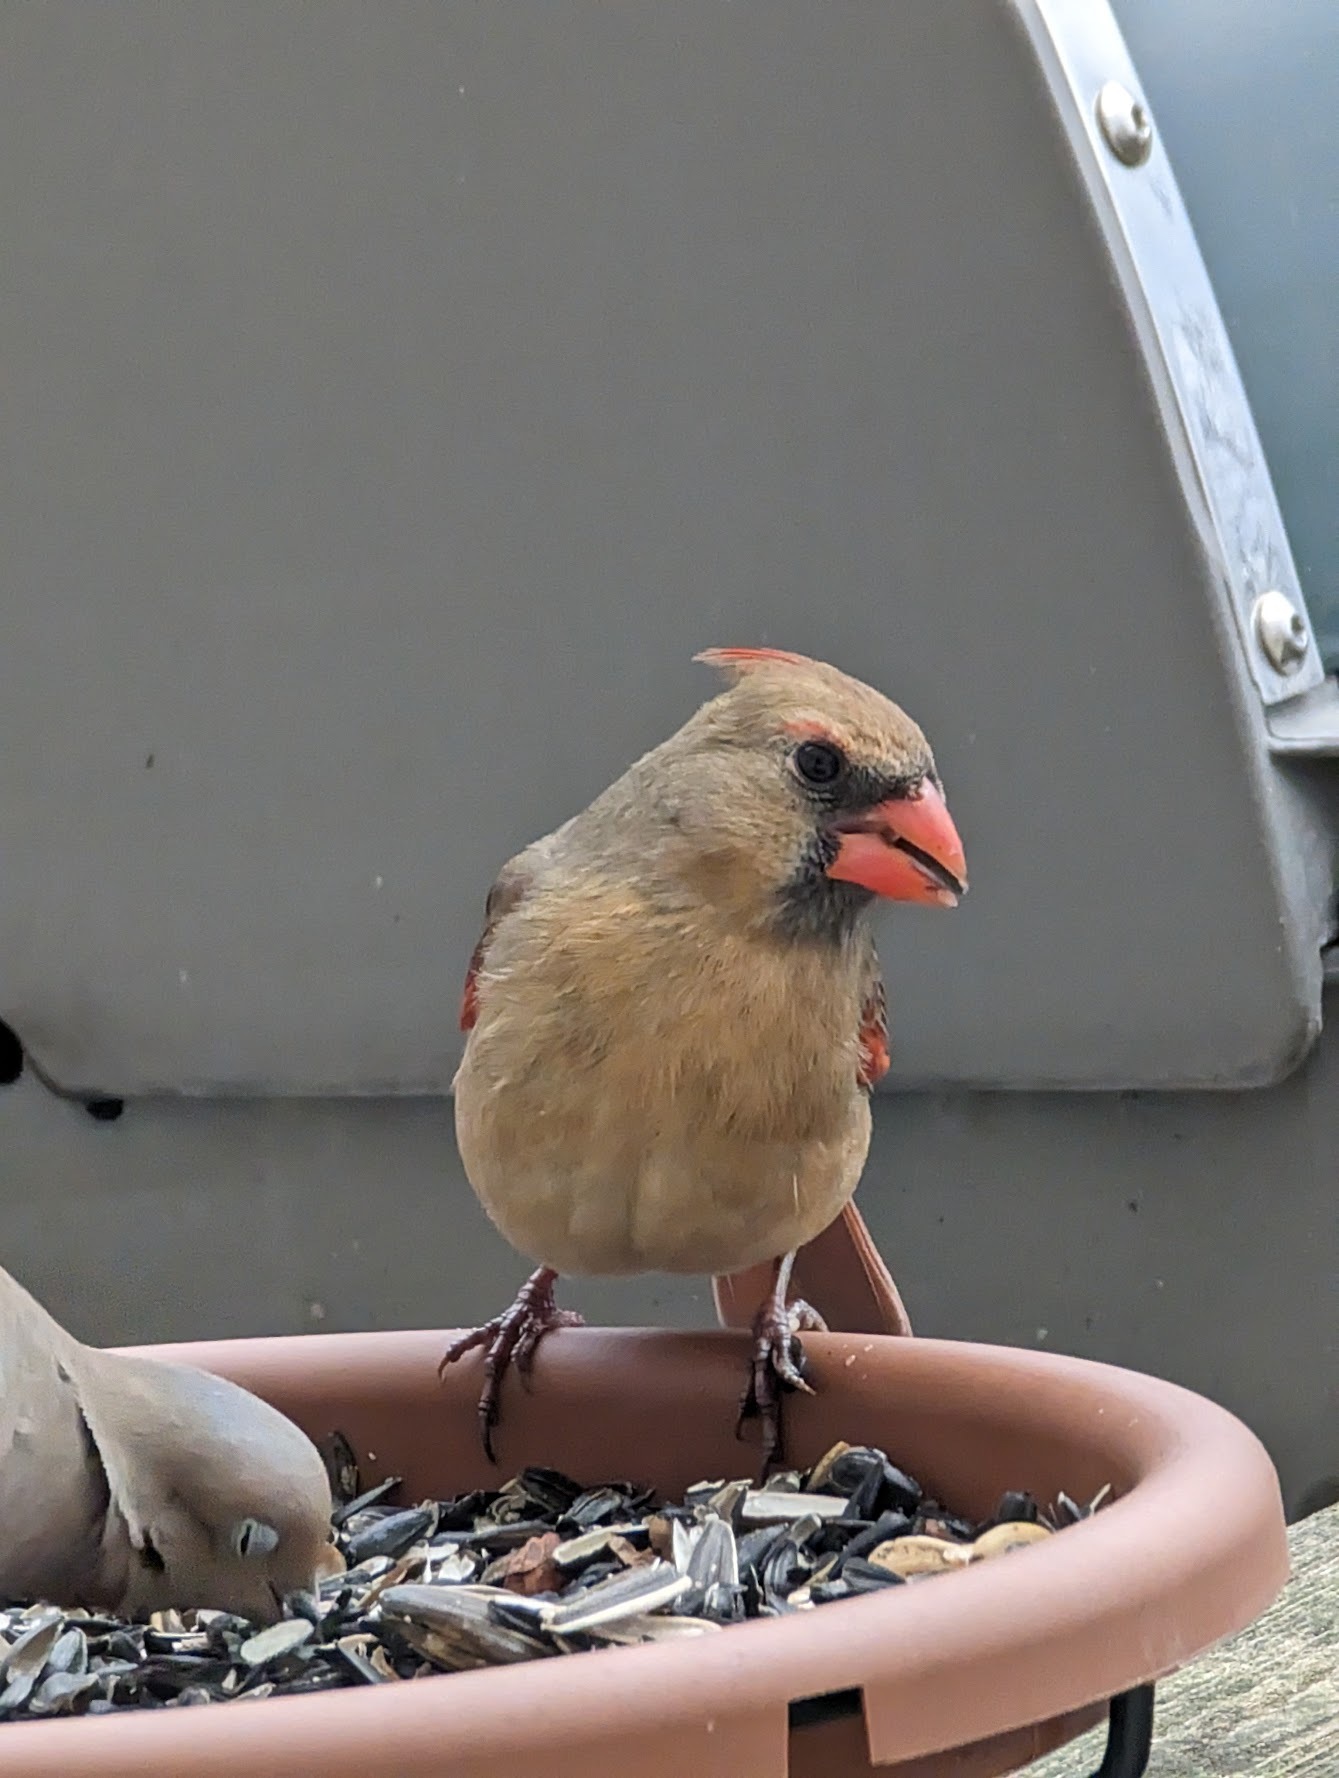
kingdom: Animalia
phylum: Chordata
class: Aves
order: Passeriformes
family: Cardinalidae
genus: Cardinalis
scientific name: Cardinalis cardinalis
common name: Northern cardinal
